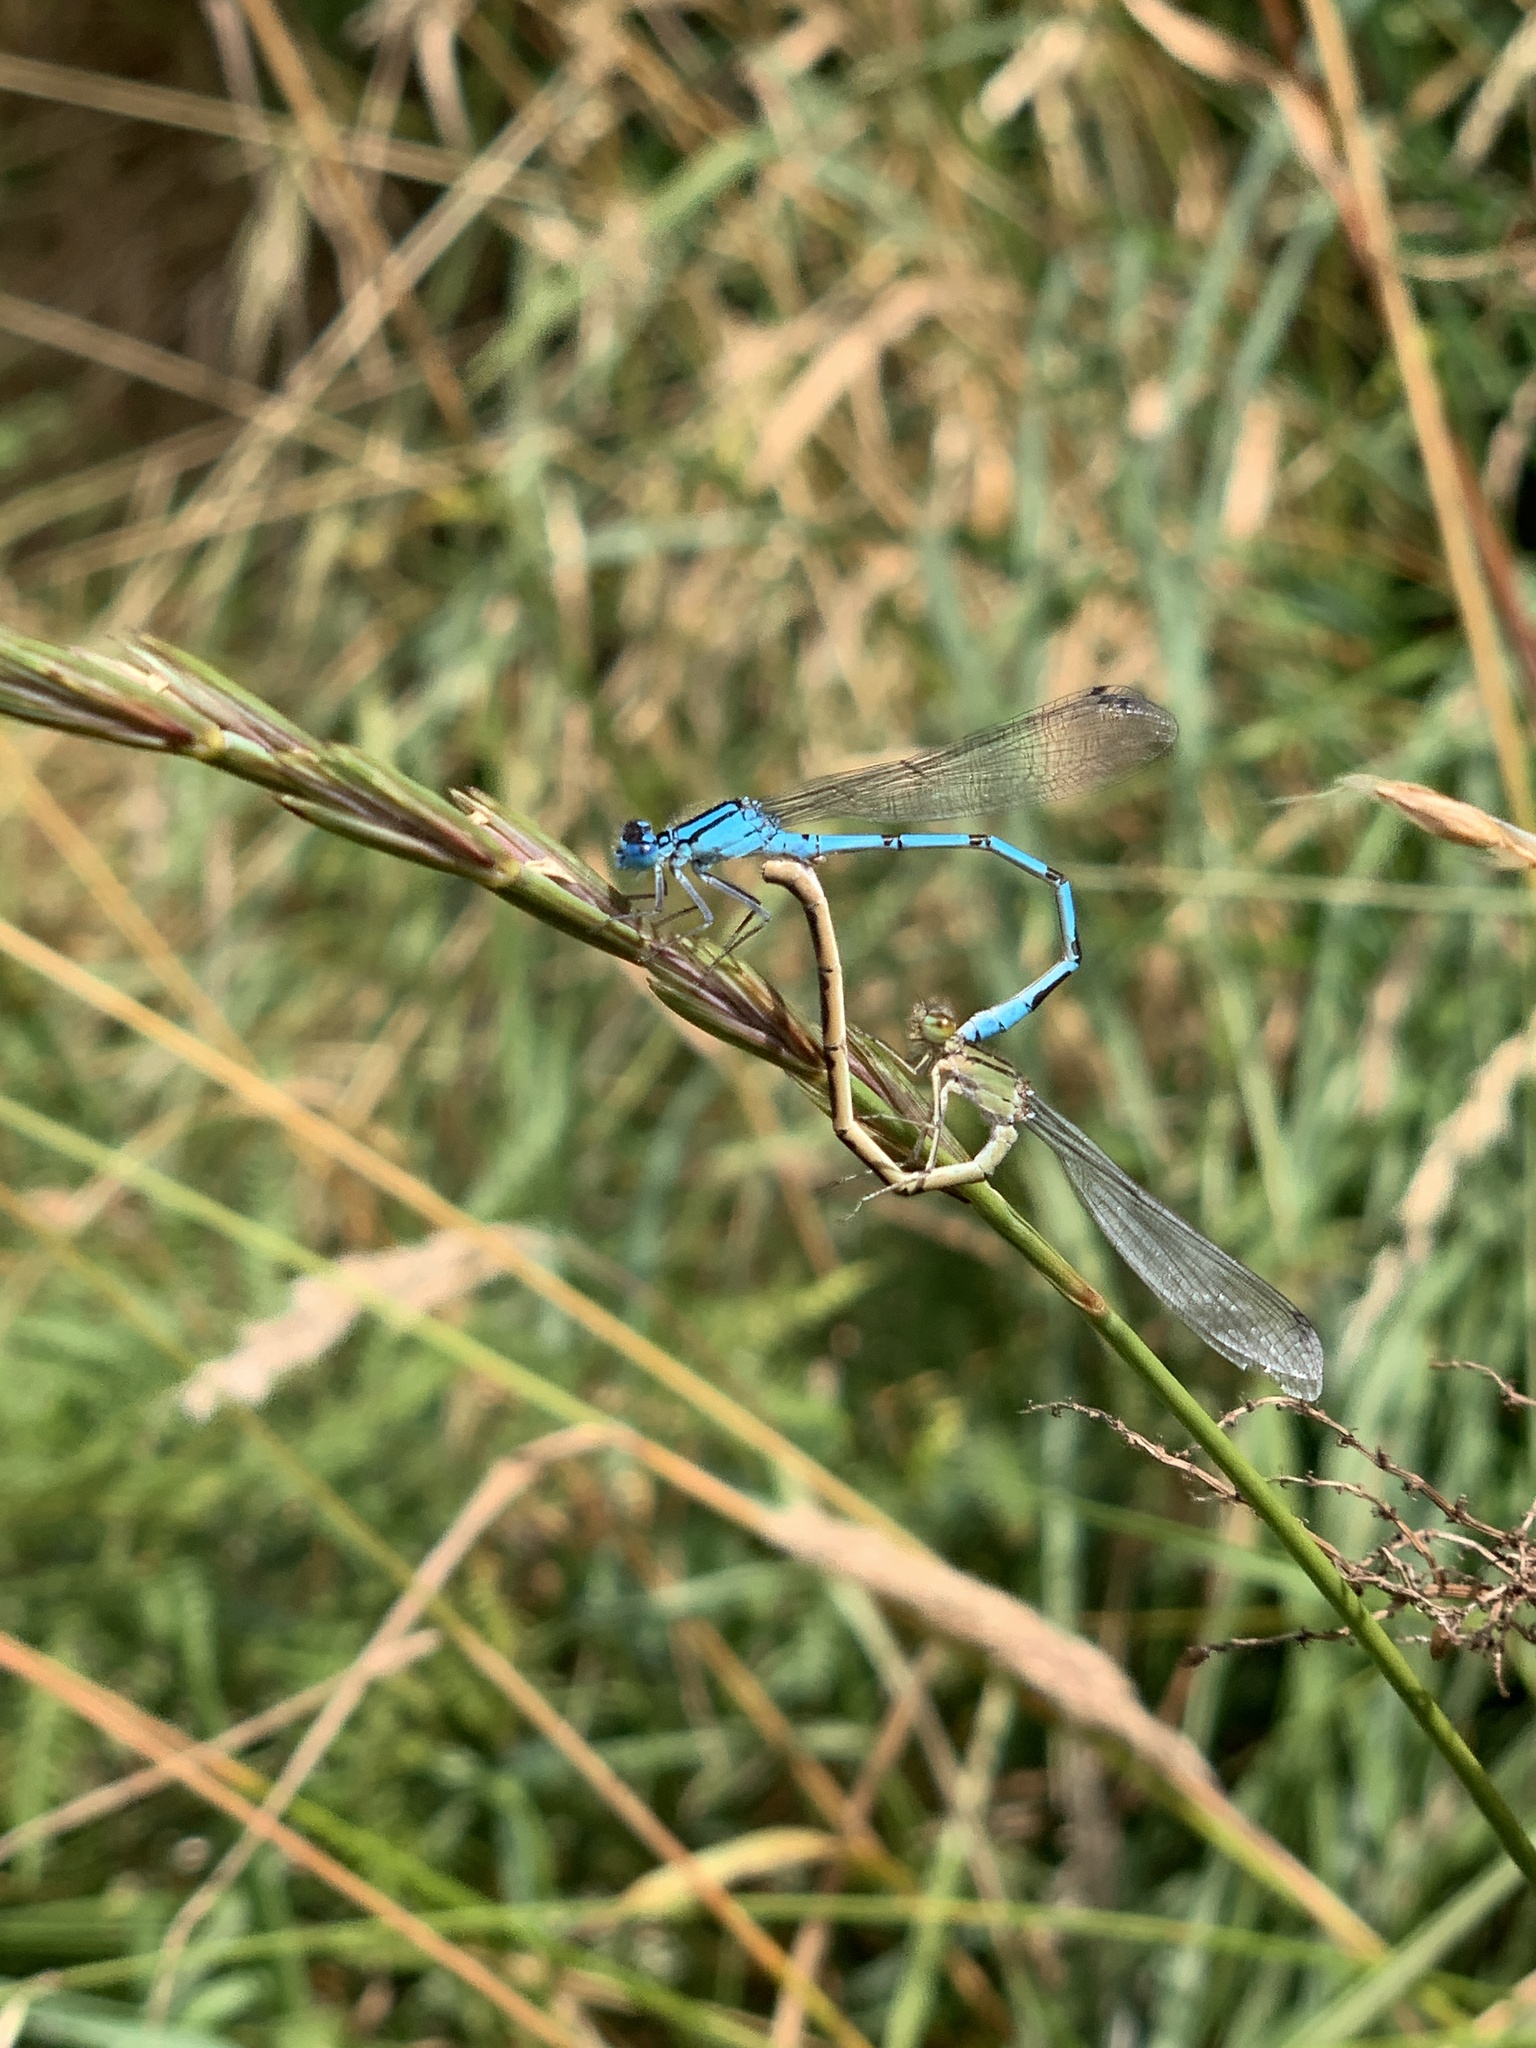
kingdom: Animalia
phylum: Arthropoda
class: Insecta
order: Odonata
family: Coenagrionidae
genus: Enallagma
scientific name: Enallagma cyathigerum
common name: Common blue damselfly
